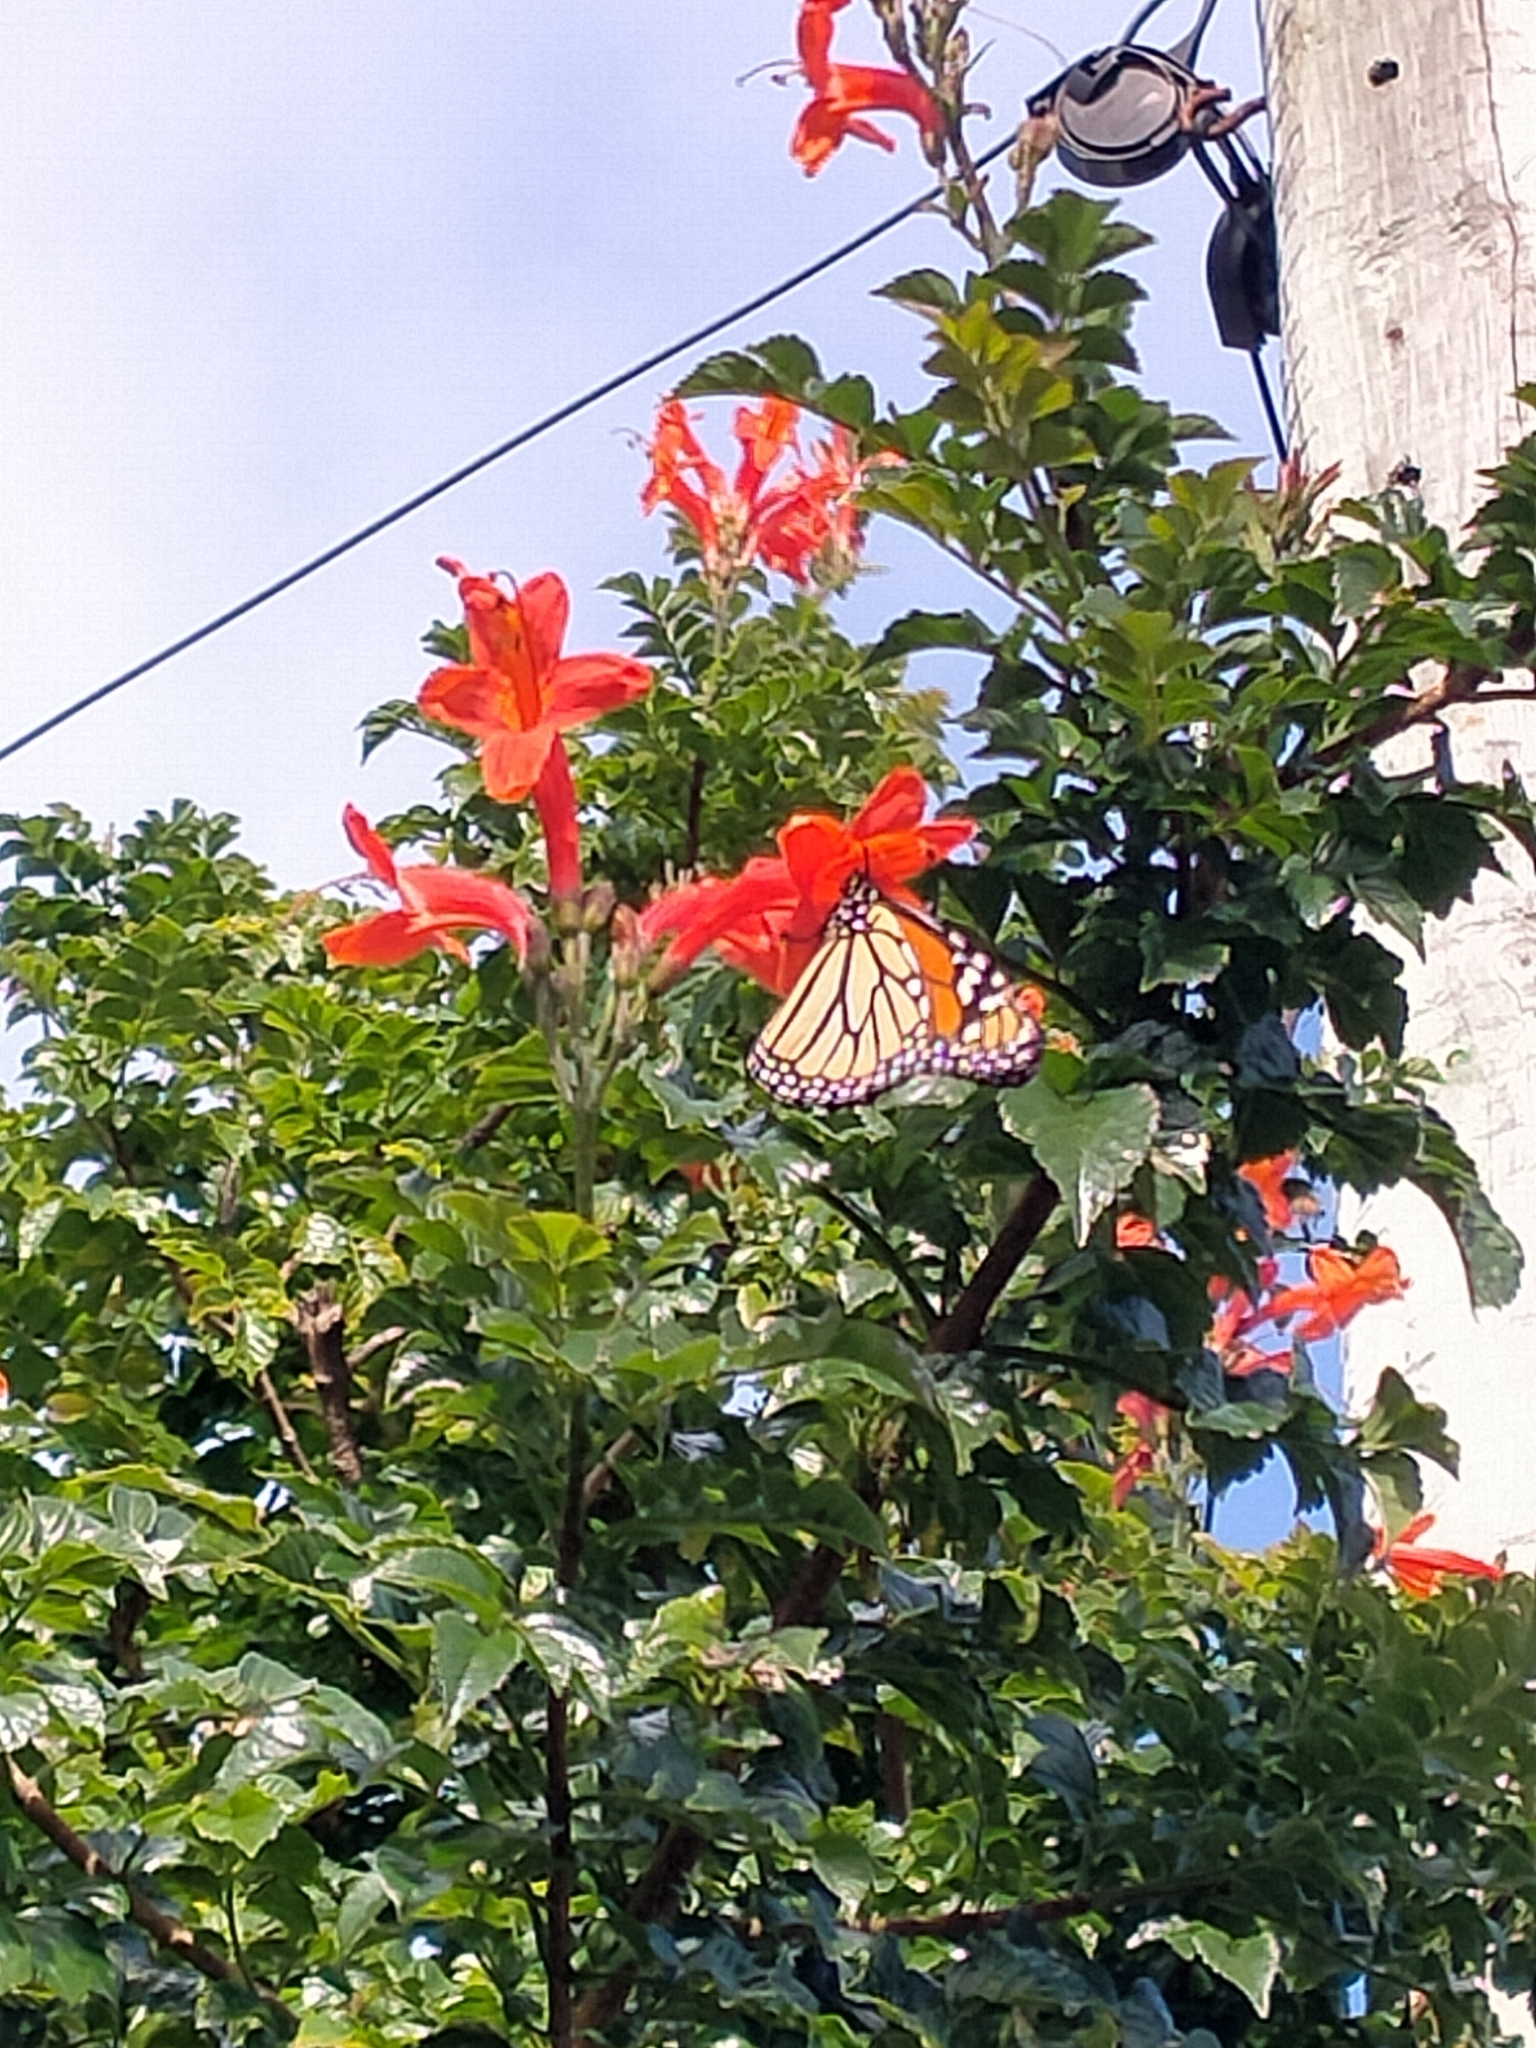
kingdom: Animalia
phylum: Arthropoda
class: Insecta
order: Lepidoptera
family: Nymphalidae
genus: Danaus
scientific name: Danaus plexippus
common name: Monarch
